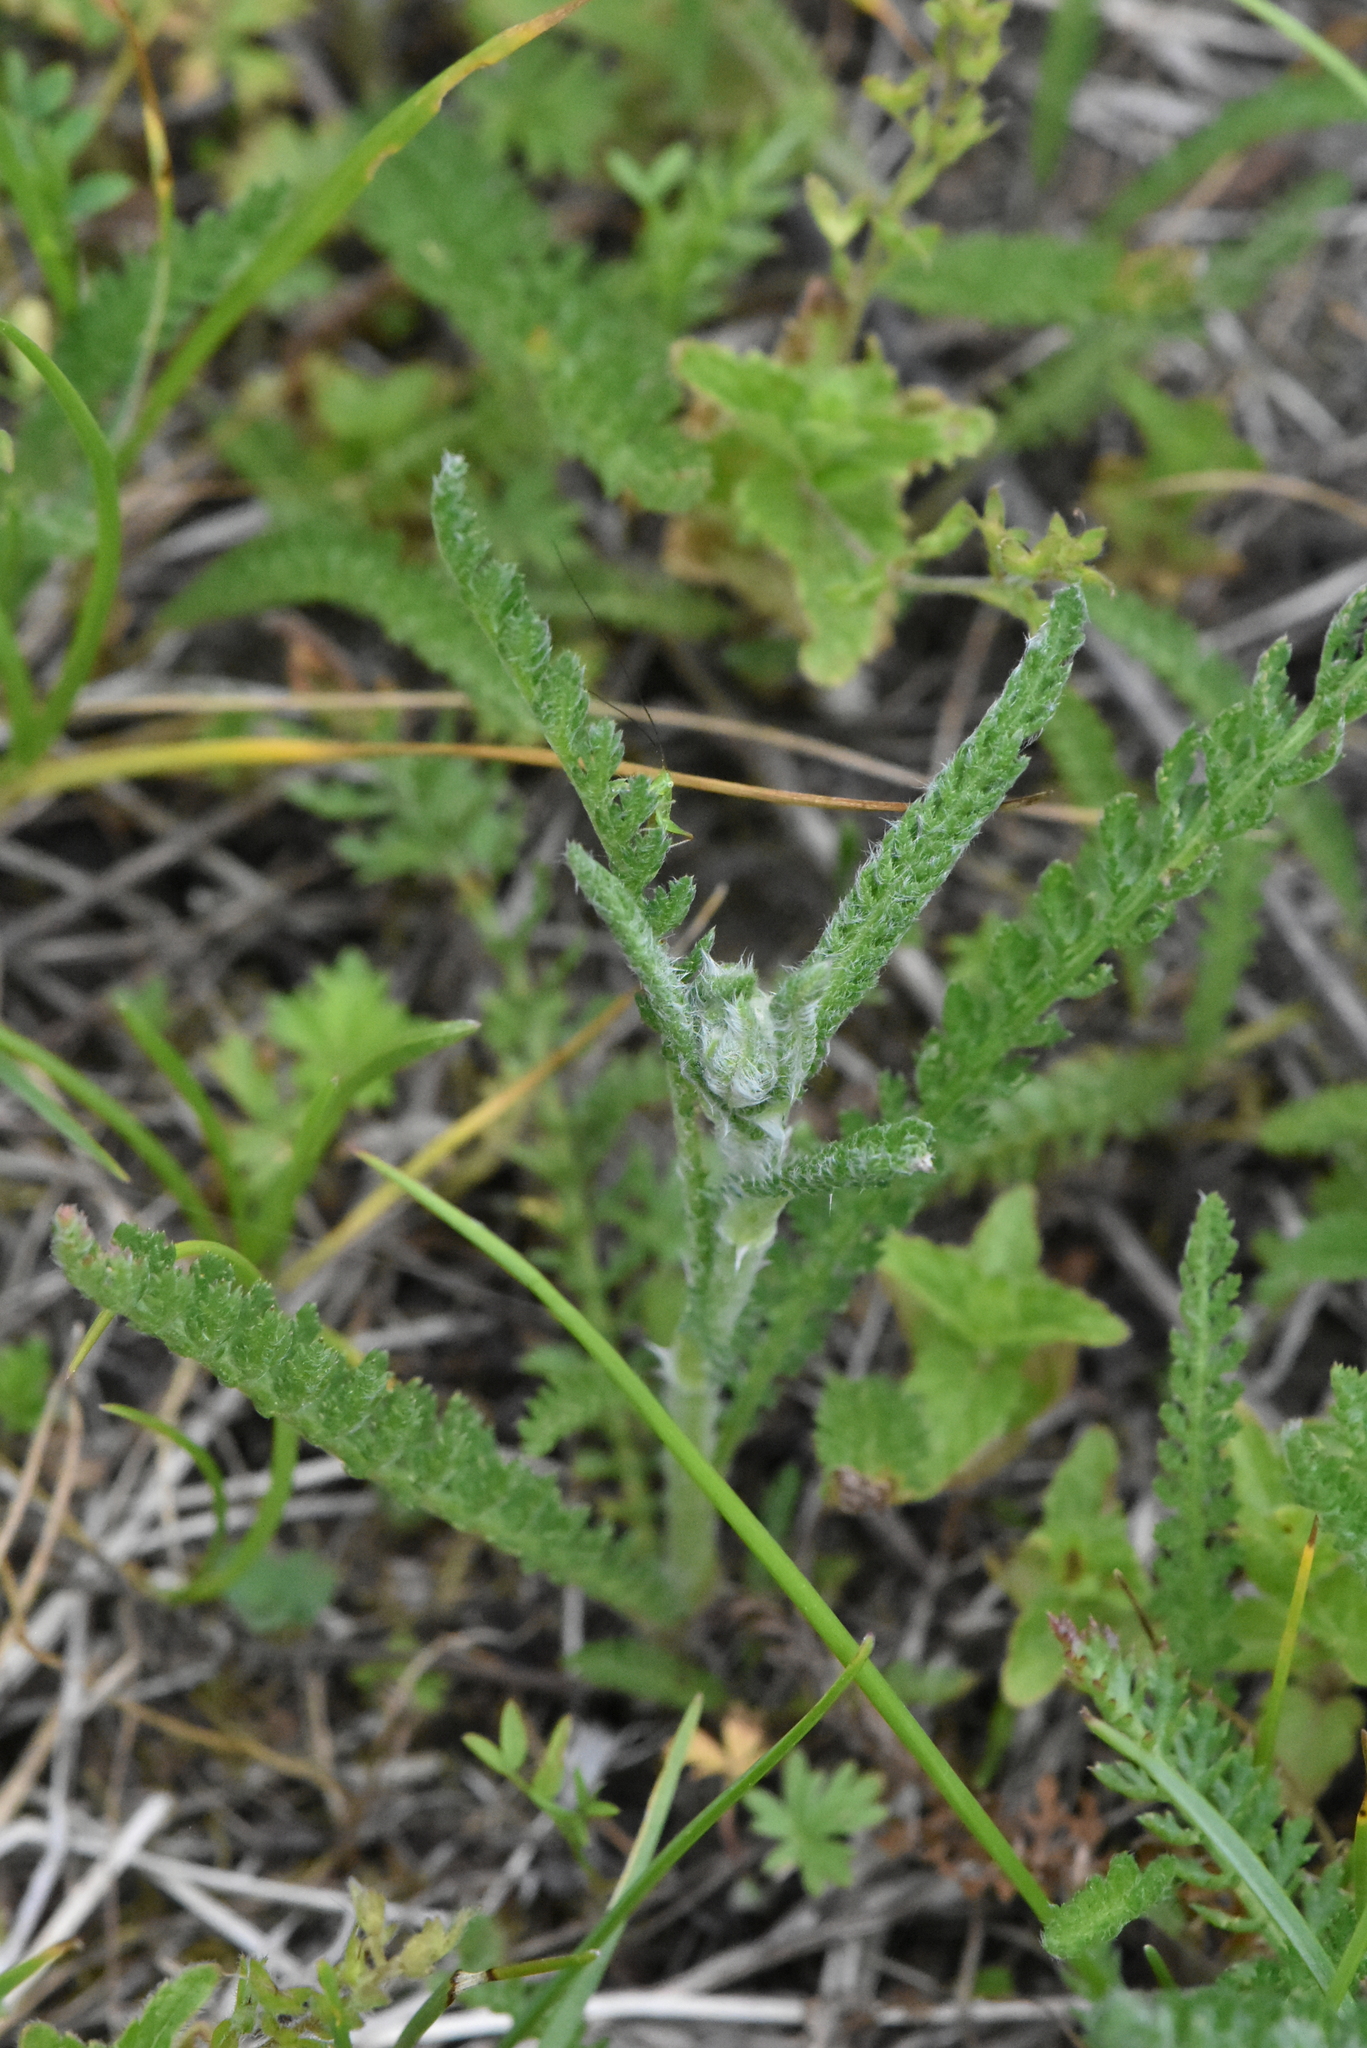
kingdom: Plantae
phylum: Tracheophyta
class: Magnoliopsida
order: Asterales
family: Asteraceae
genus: Achillea
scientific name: Achillea millefolium
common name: Yarrow
